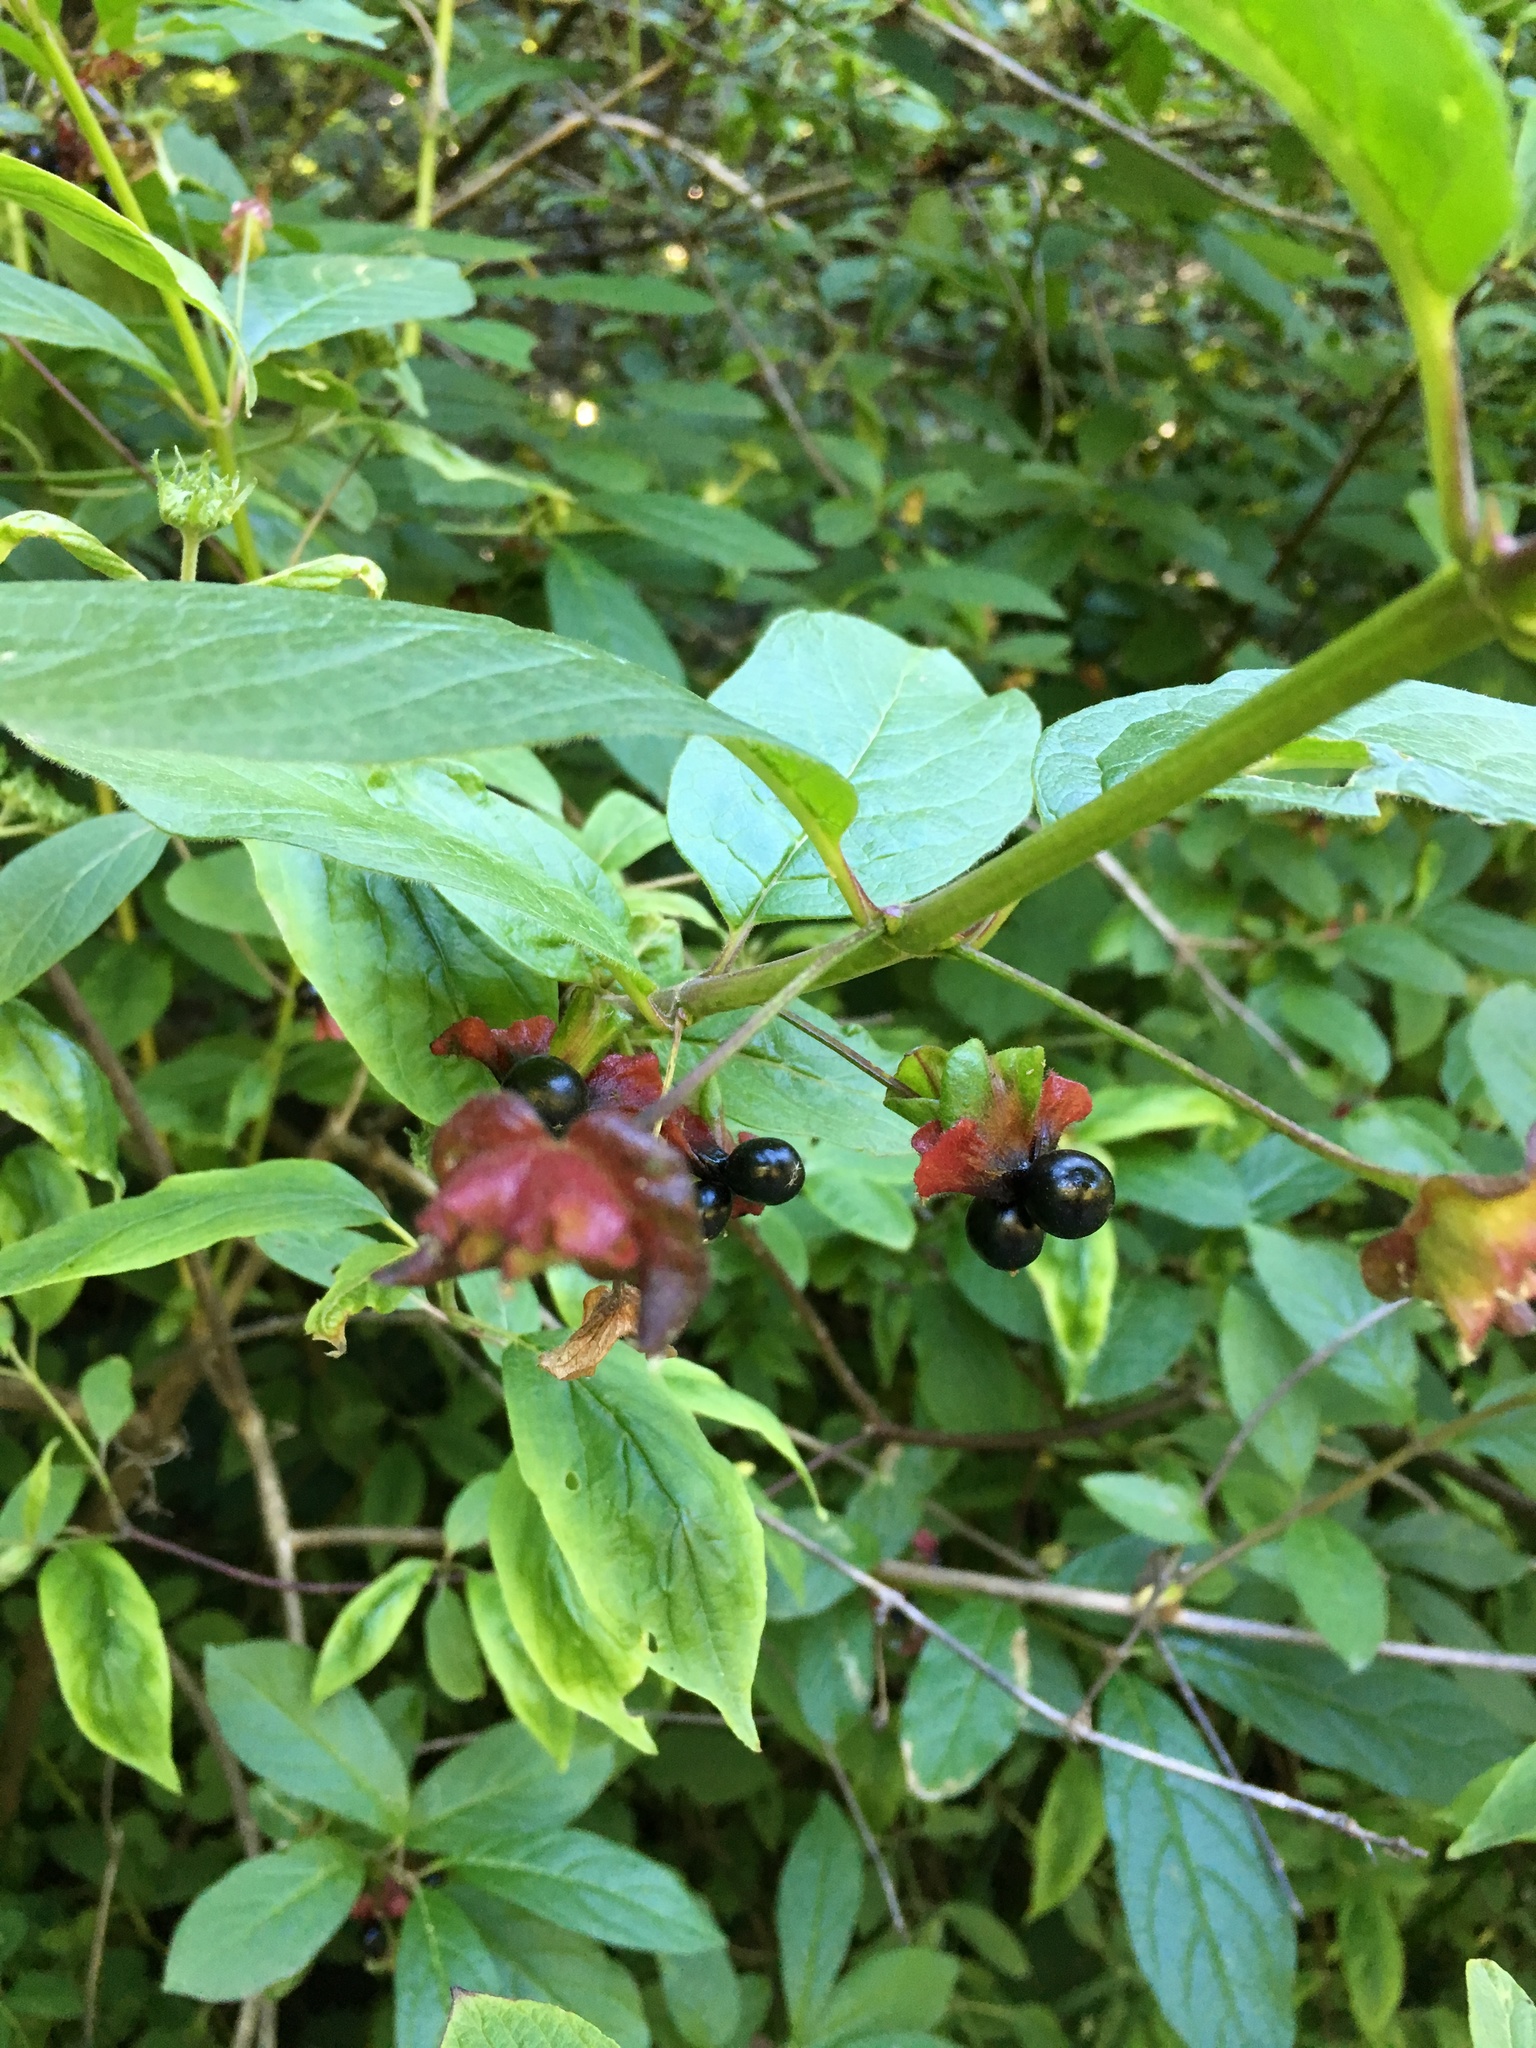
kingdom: Plantae
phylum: Tracheophyta
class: Magnoliopsida
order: Dipsacales
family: Caprifoliaceae
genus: Lonicera
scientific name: Lonicera involucrata
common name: Californian honeysuckle
